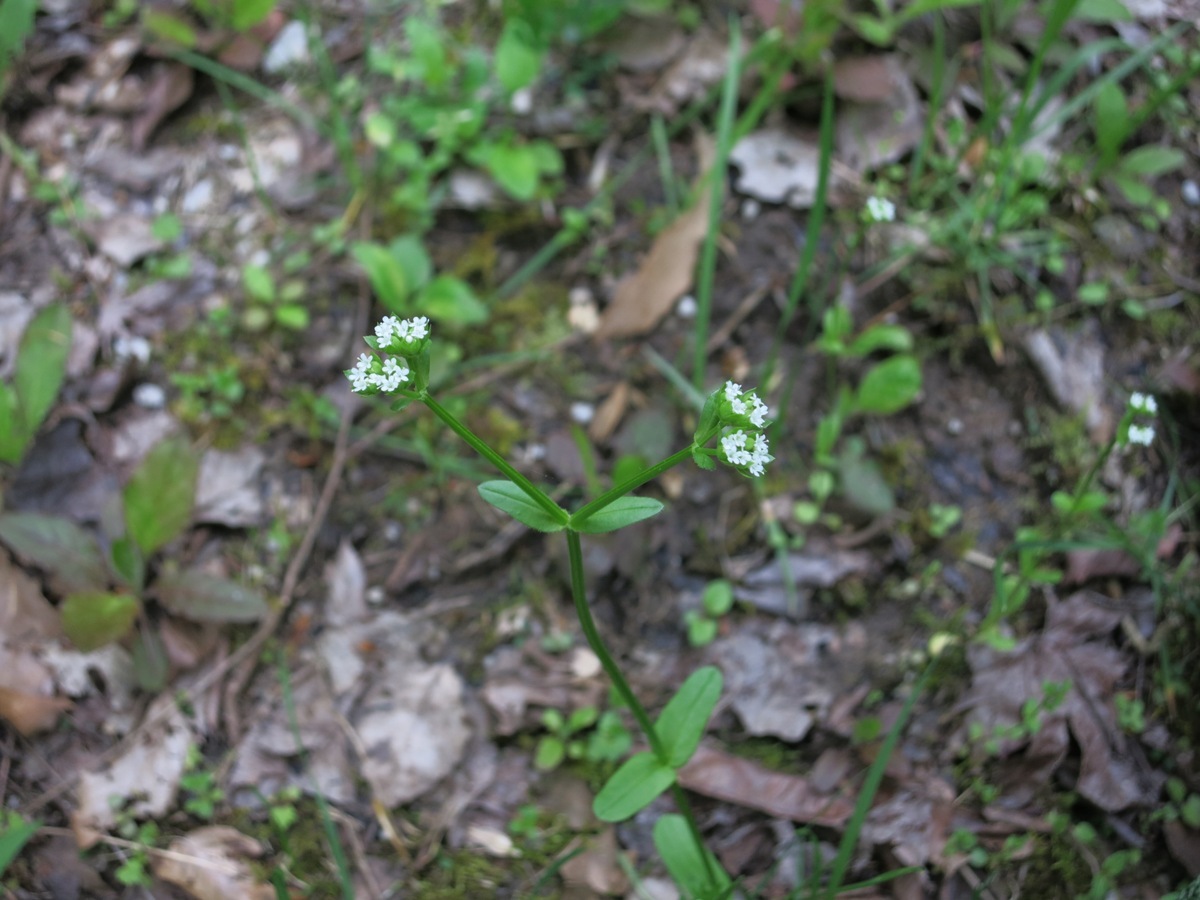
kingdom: Plantae
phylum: Tracheophyta
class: Magnoliopsida
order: Dipsacales
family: Caprifoliaceae
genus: Valerianella
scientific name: Valerianella radiata
